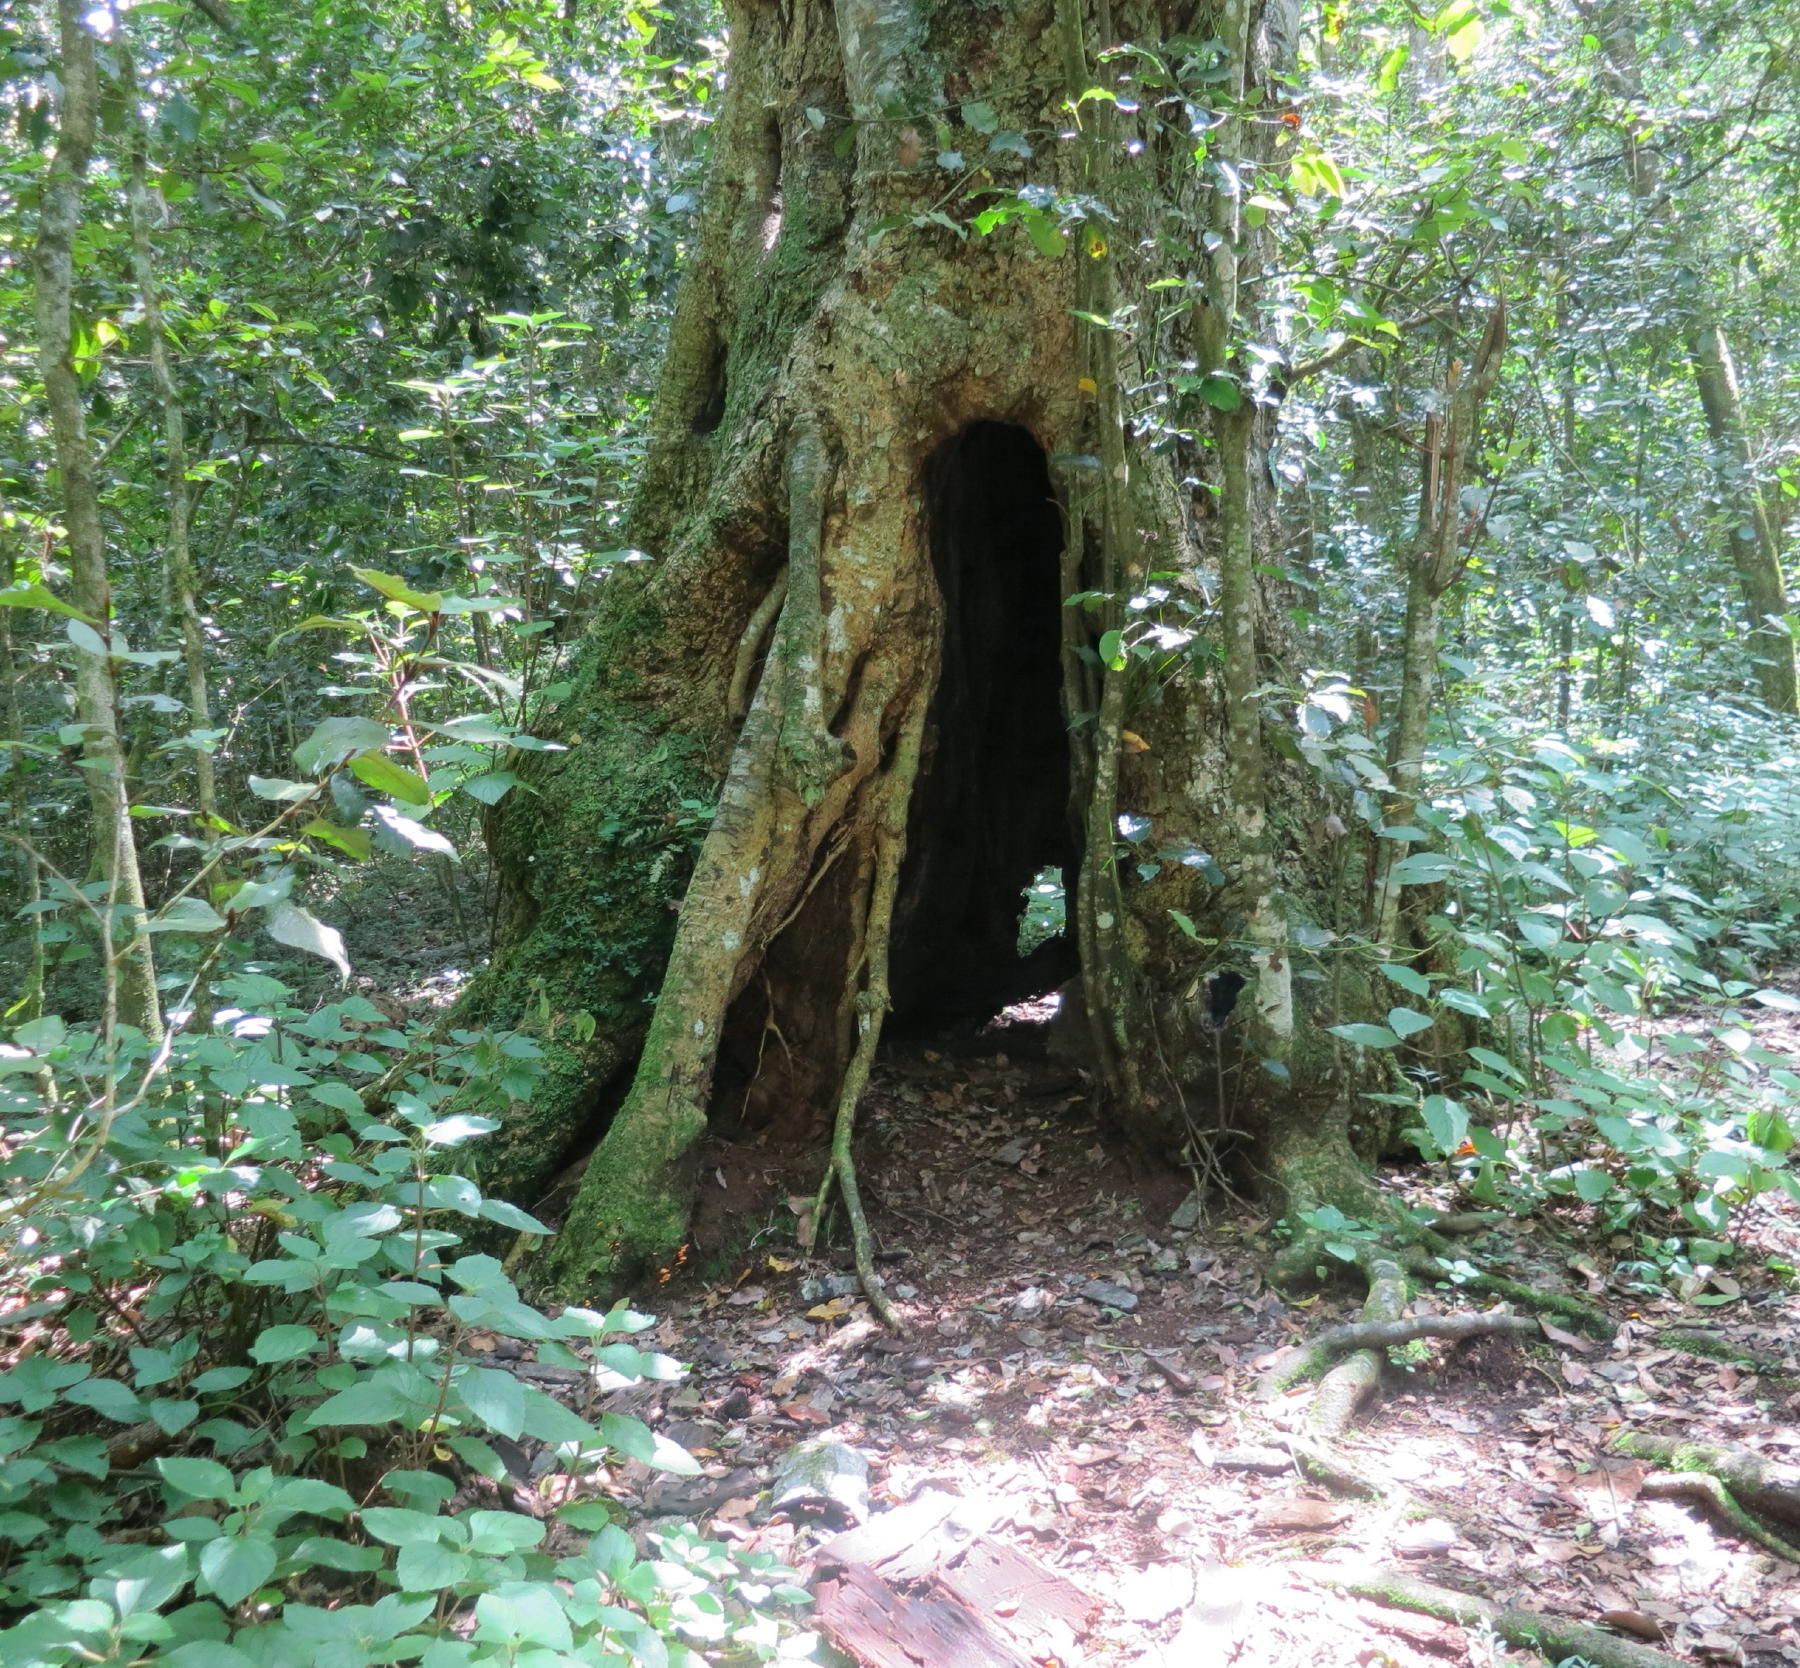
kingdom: Plantae
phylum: Tracheophyta
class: Magnoliopsida
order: Laurales
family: Lauraceae
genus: Ocotea
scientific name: Ocotea bullata
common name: Black stinkwood
